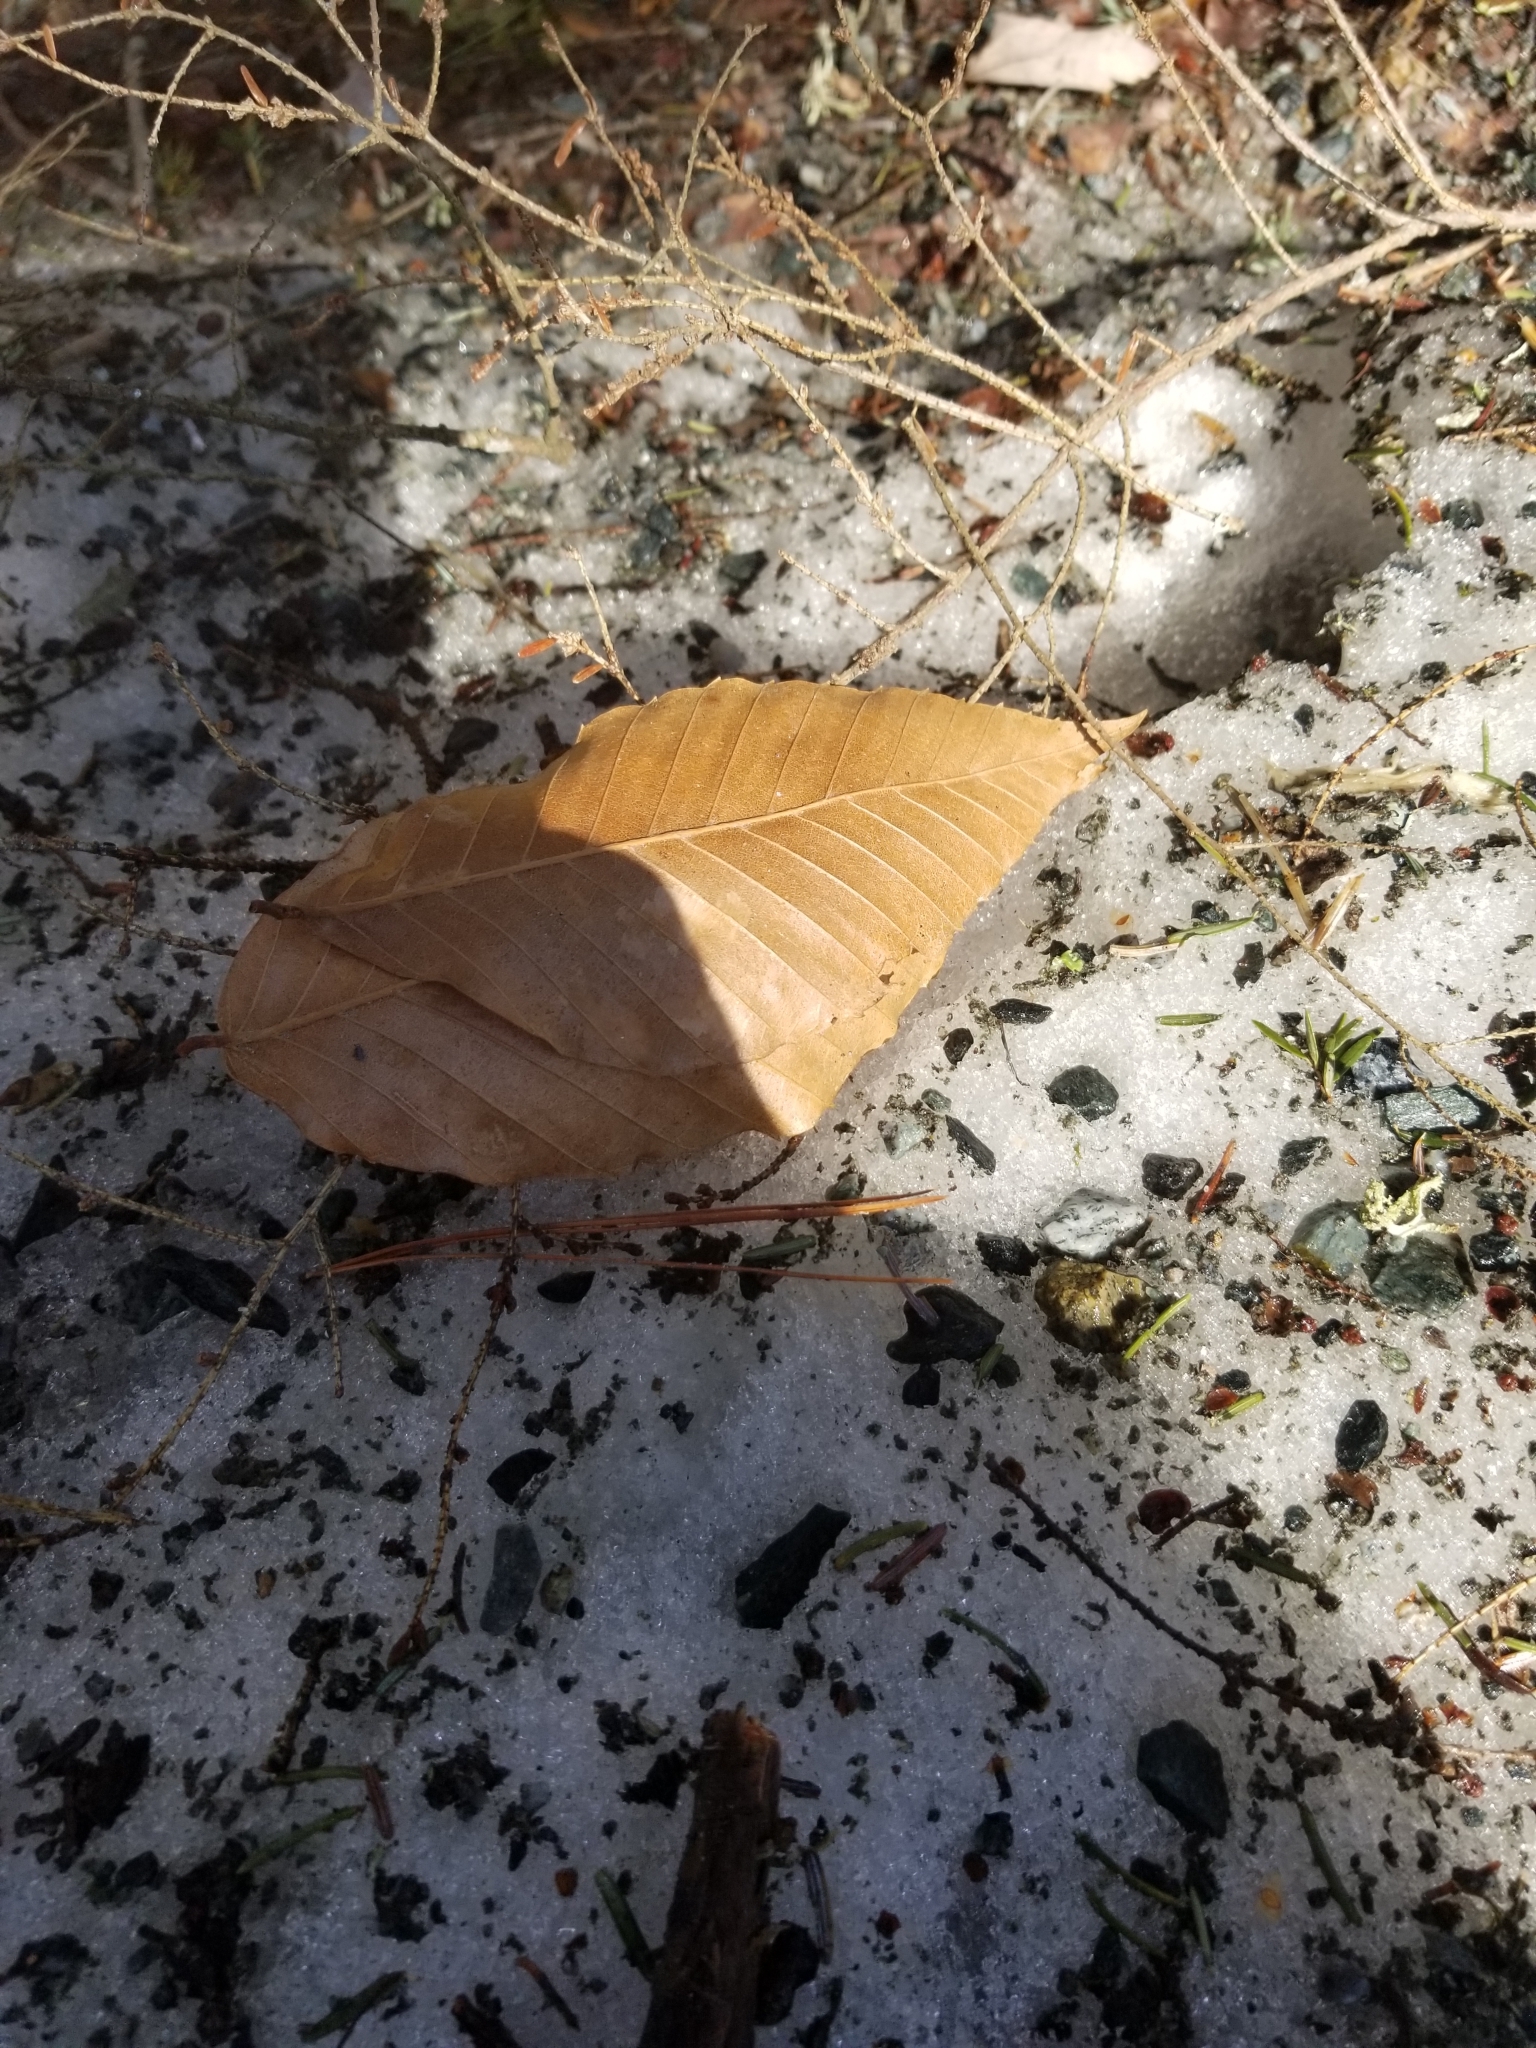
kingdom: Plantae
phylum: Tracheophyta
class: Magnoliopsida
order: Fagales
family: Fagaceae
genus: Fagus
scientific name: Fagus grandifolia
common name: American beech
